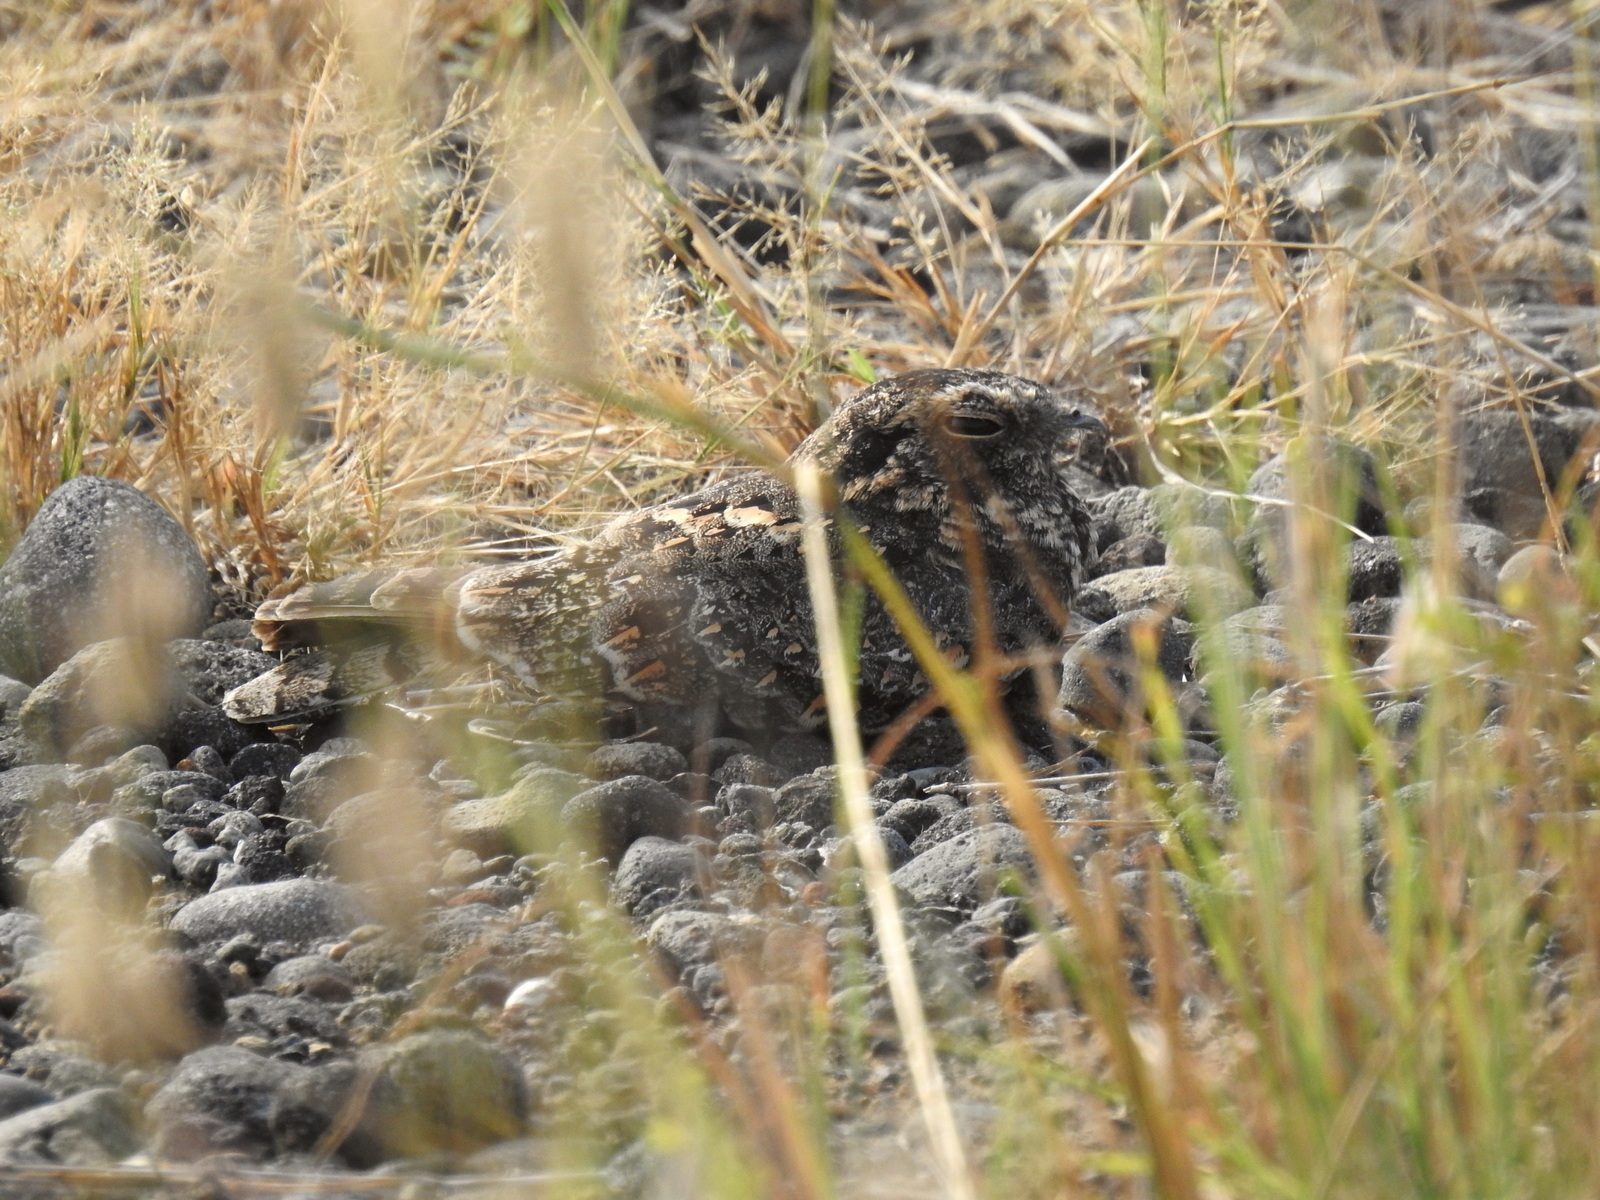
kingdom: Animalia
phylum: Chordata
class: Aves
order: Caprimulgiformes
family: Caprimulgidae
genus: Caprimulgus
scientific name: Caprimulgus affinis
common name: Savanna nightjar
